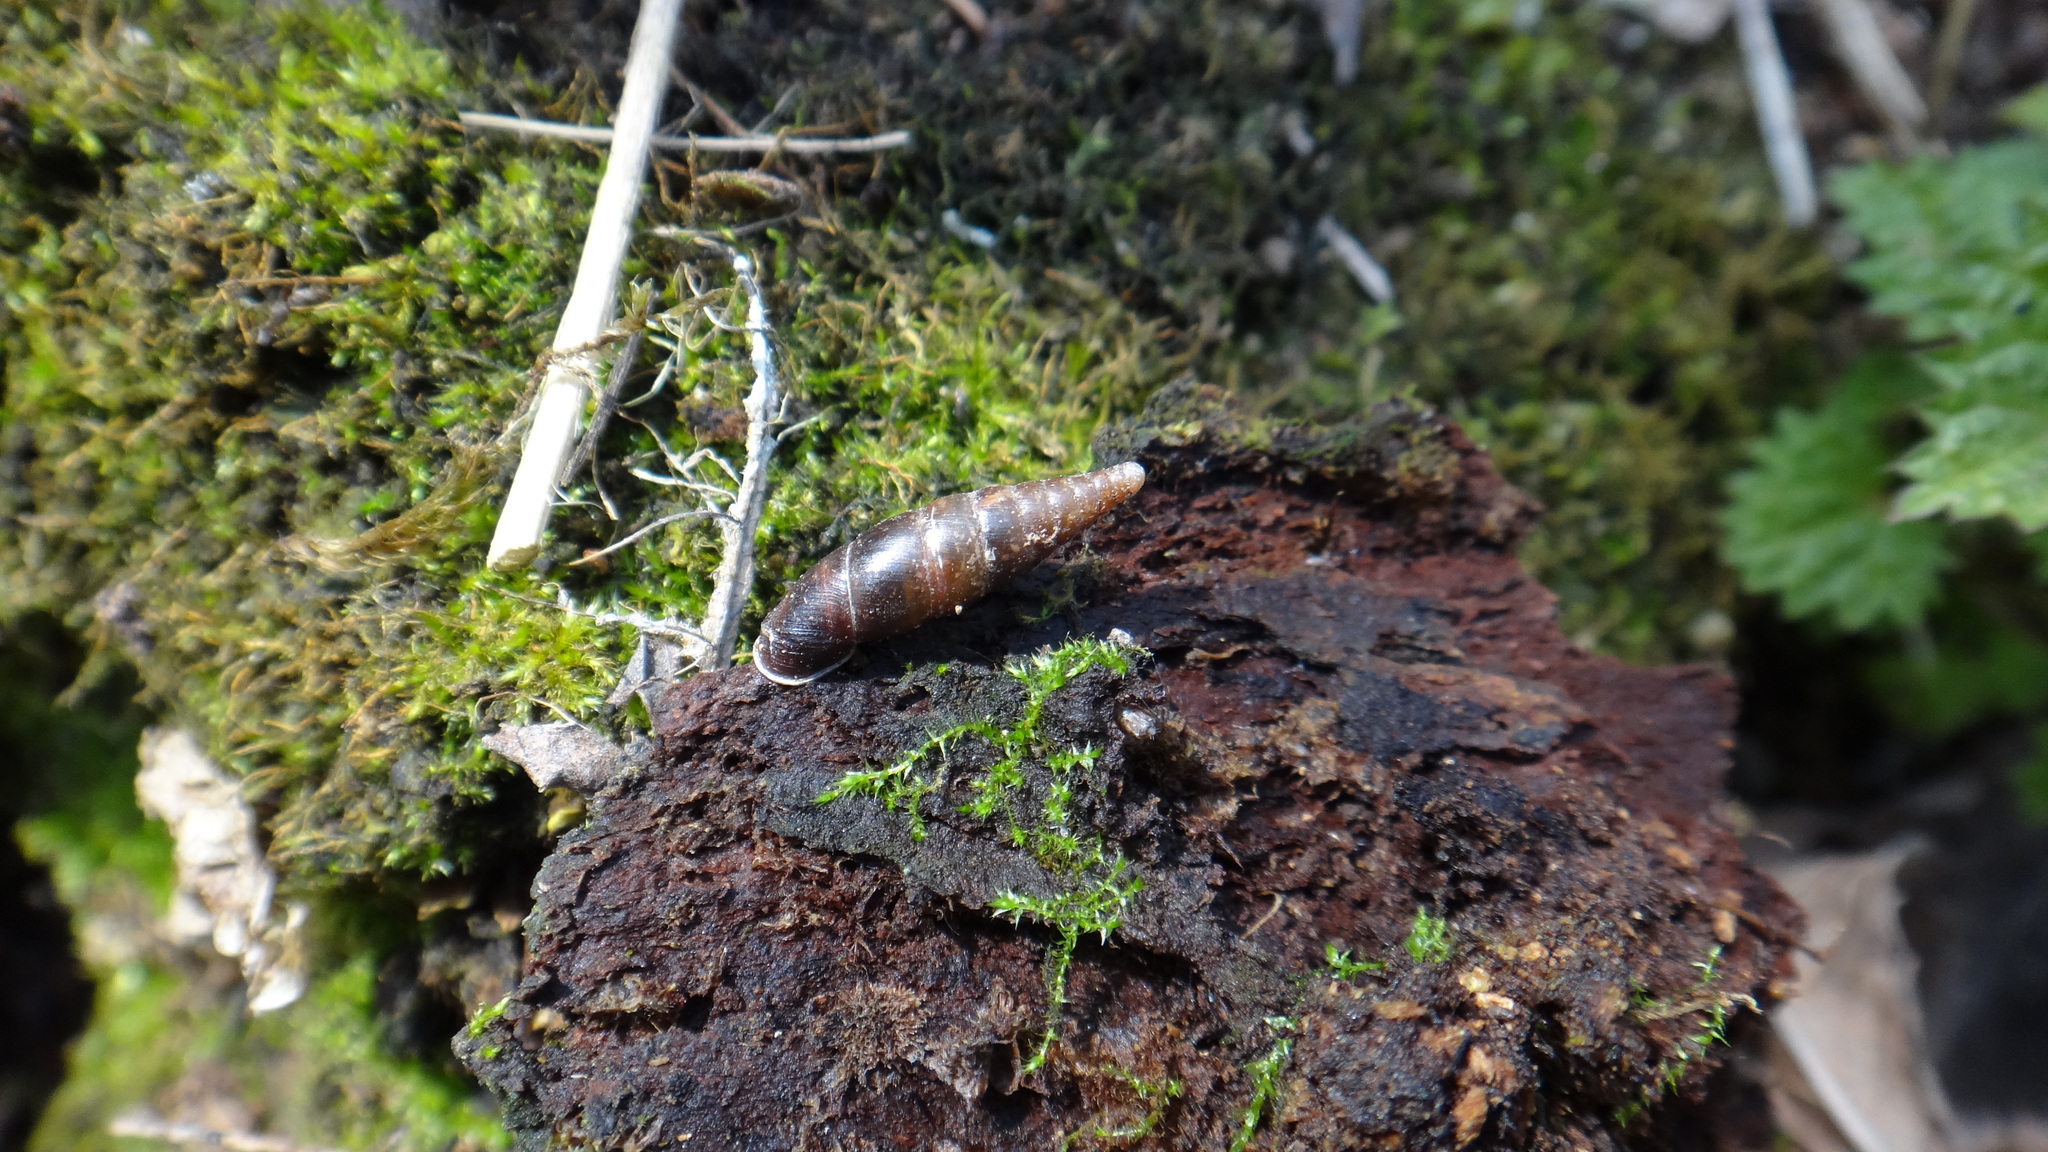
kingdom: Animalia
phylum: Mollusca
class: Gastropoda
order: Stylommatophora
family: Clausiliidae
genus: Cochlodina
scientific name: Cochlodina laminata
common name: Plaited door snail
